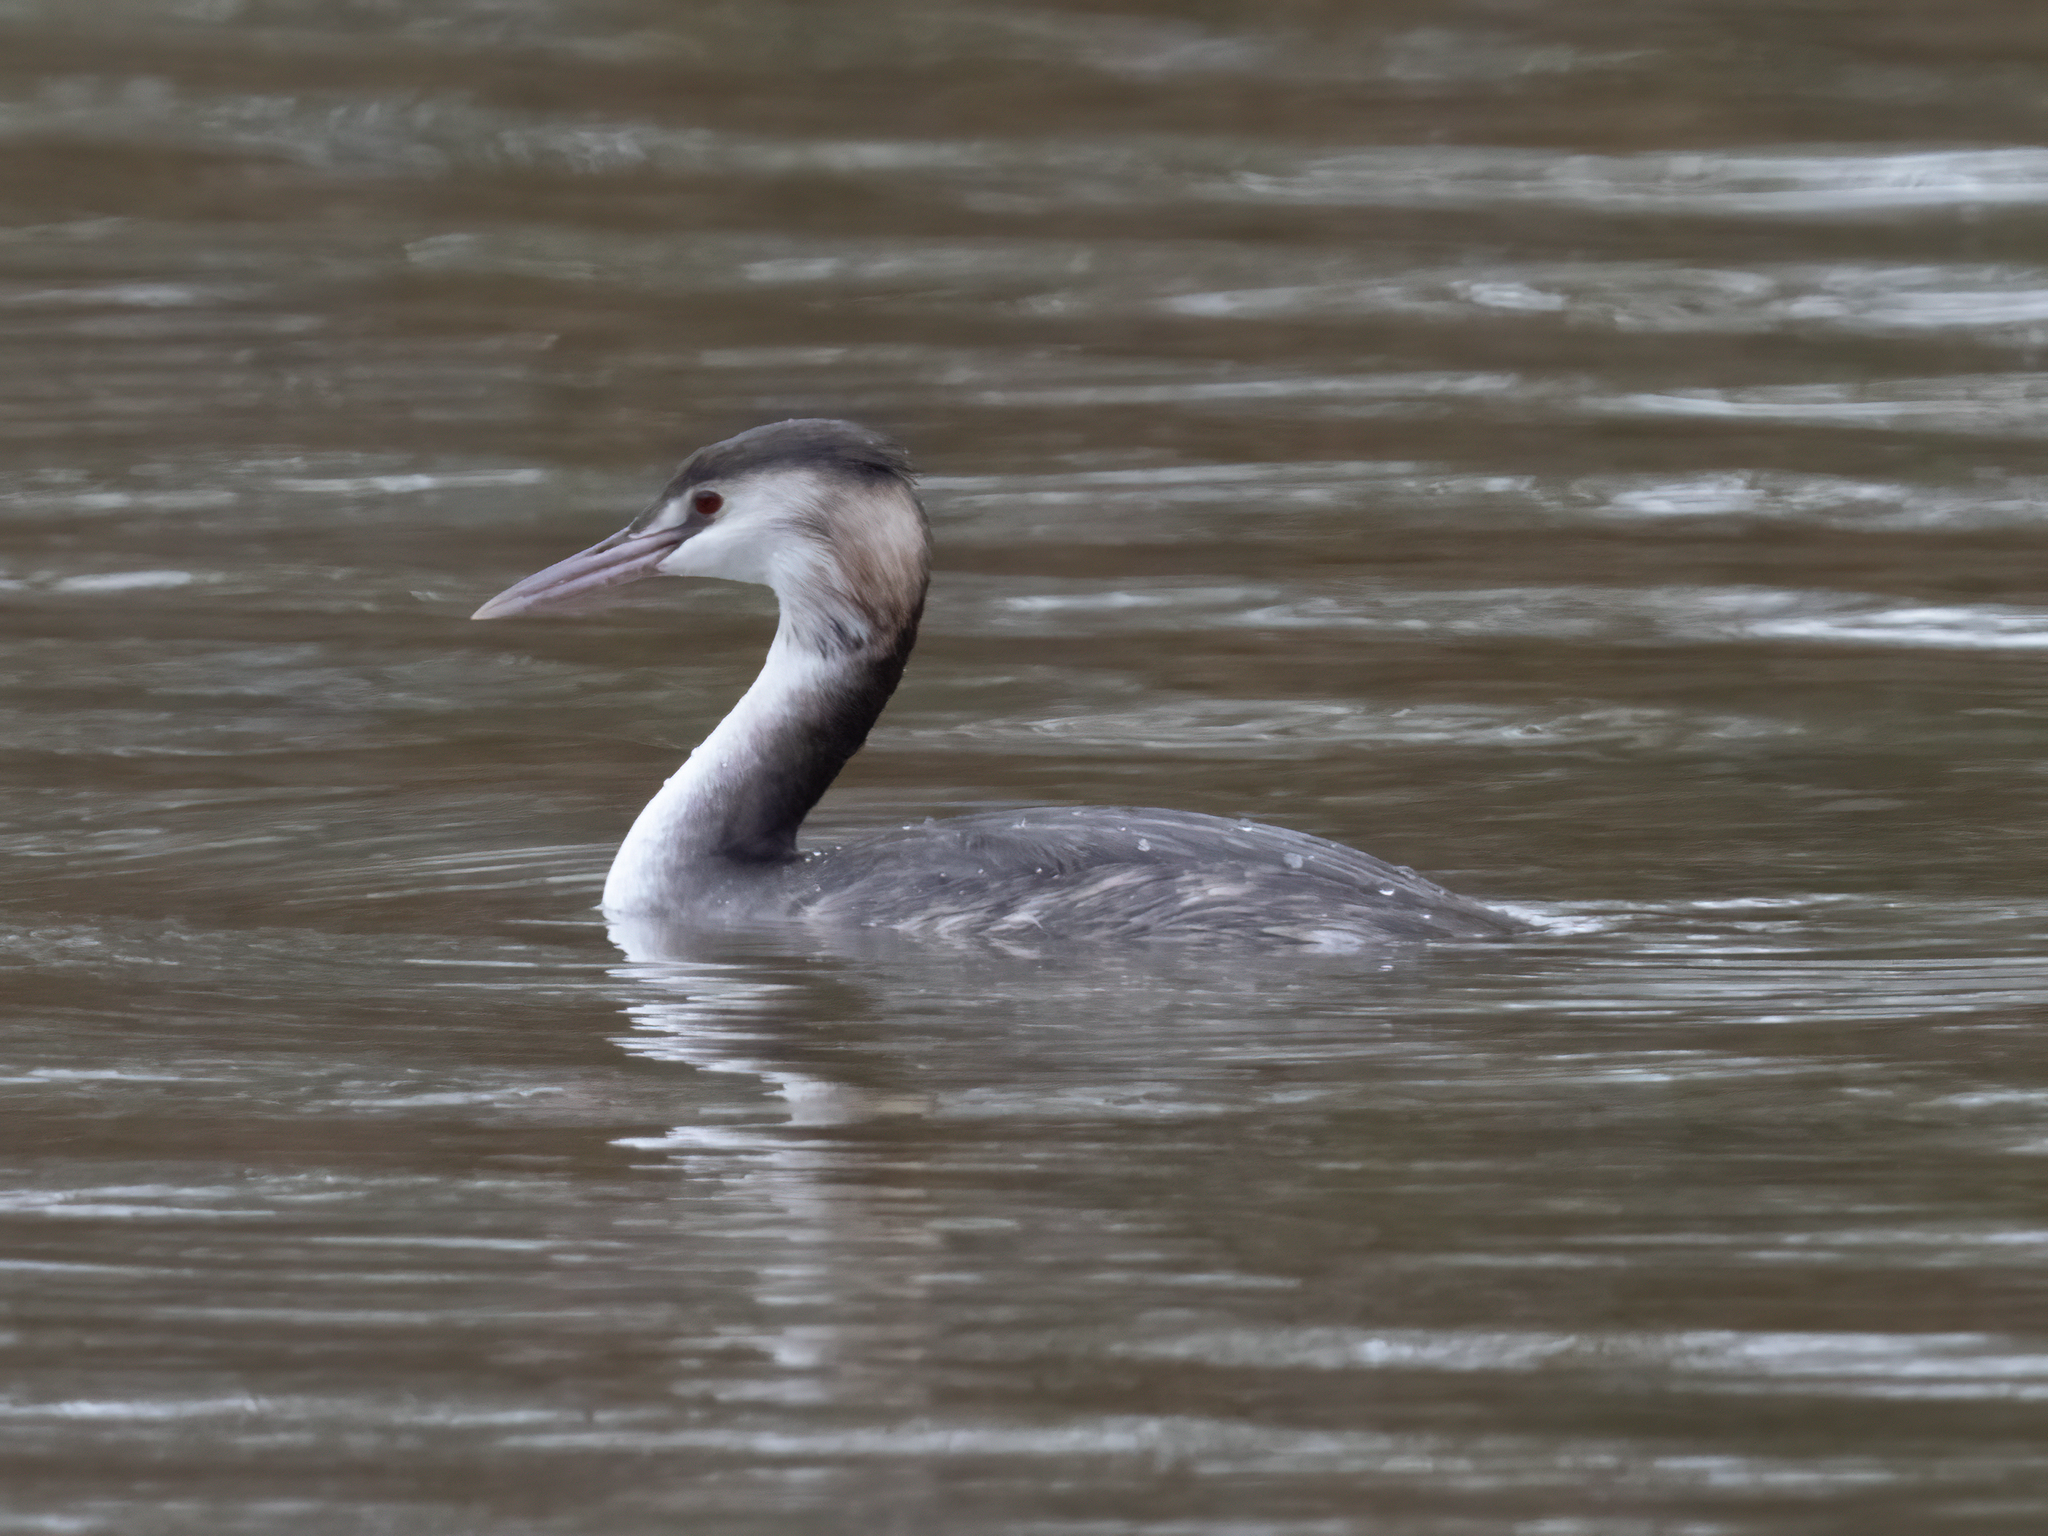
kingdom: Animalia
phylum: Chordata
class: Aves
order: Podicipediformes
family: Podicipedidae
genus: Podiceps
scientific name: Podiceps cristatus
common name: Great crested grebe
